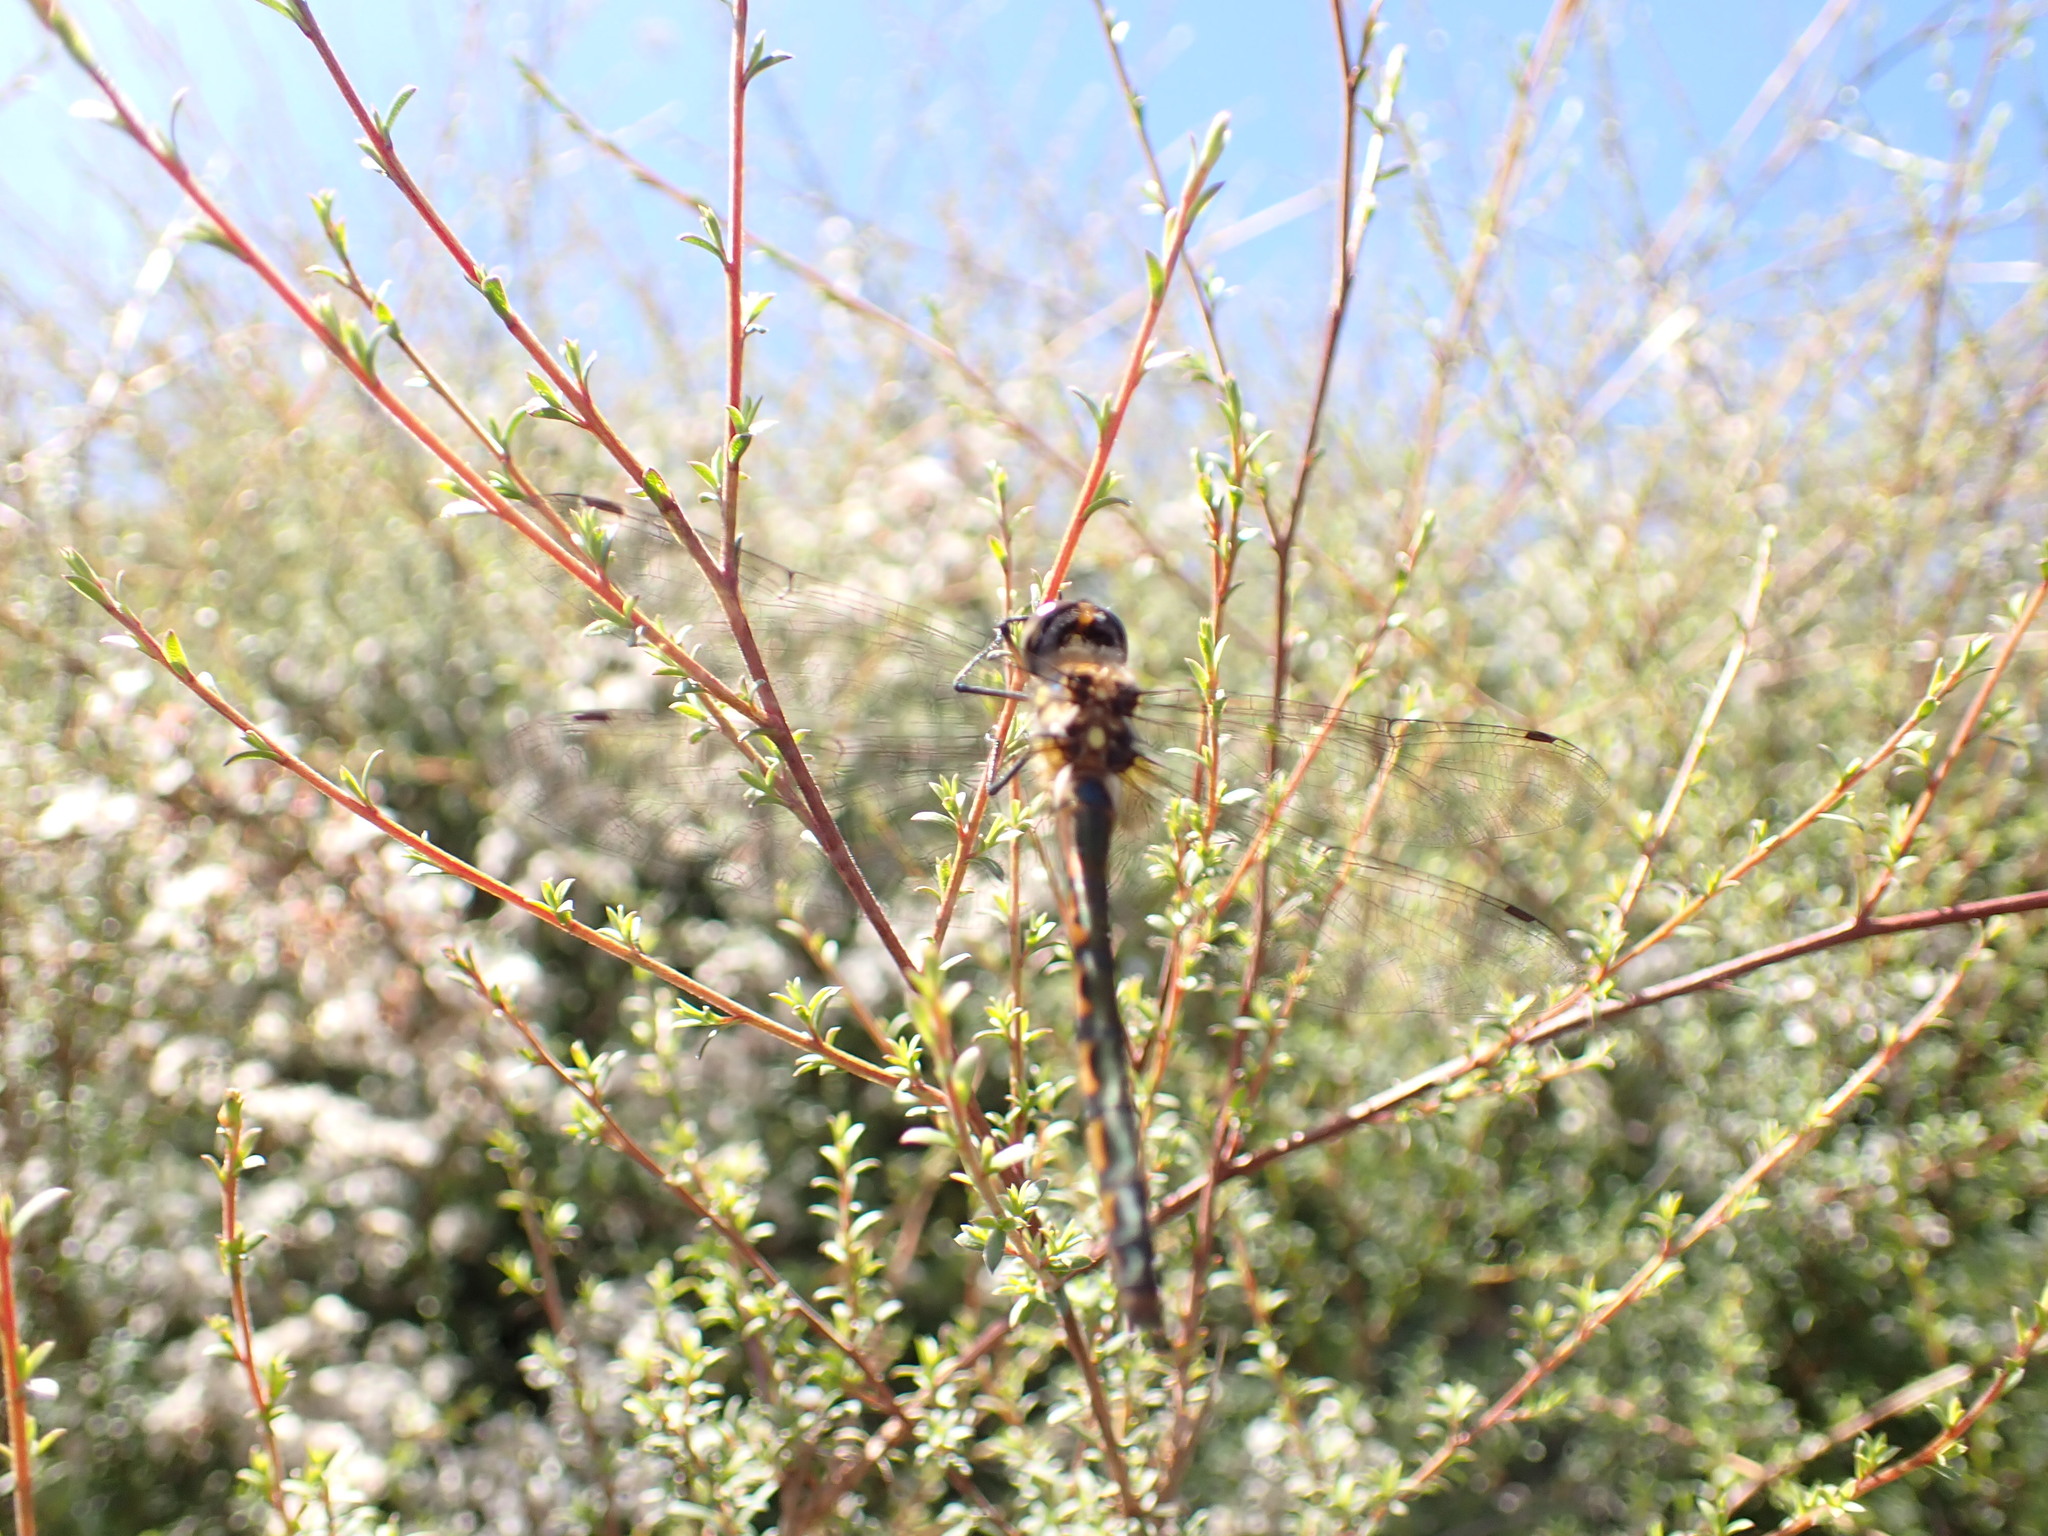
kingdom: Animalia
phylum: Arthropoda
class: Insecta
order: Odonata
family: Corduliidae
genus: Hemicordulia
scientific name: Hemicordulia armstrongi
